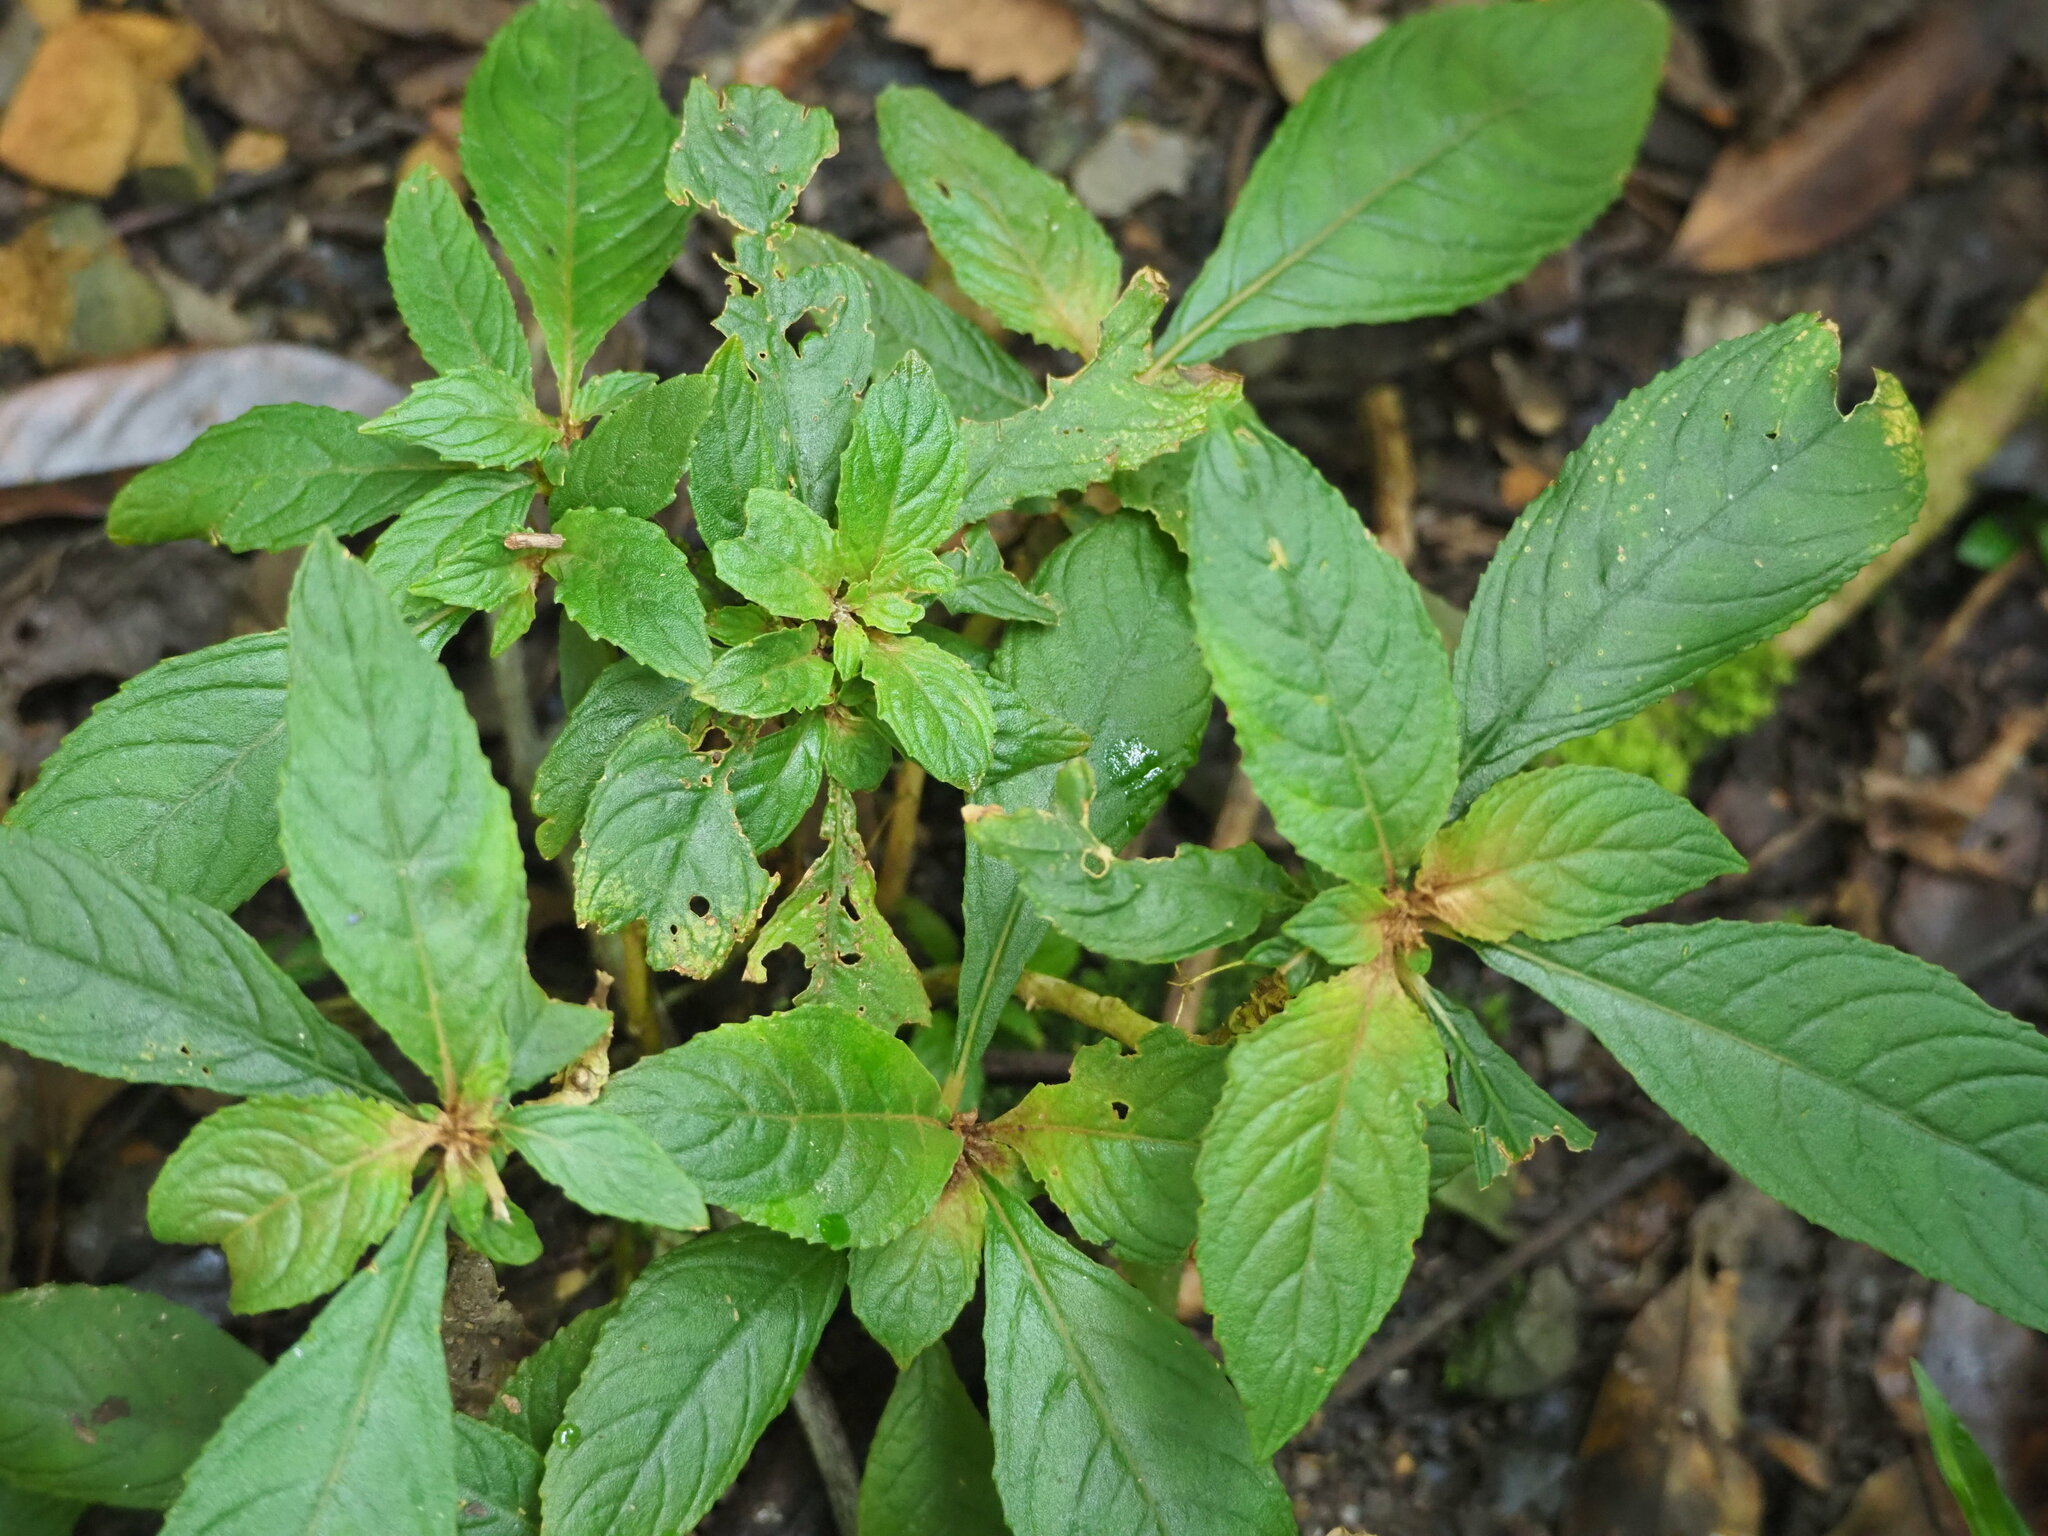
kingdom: Plantae
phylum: Tracheophyta
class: Magnoliopsida
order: Lamiales
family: Gesneriaceae
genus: Rhynchotechum
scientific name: Rhynchotechum discolor
